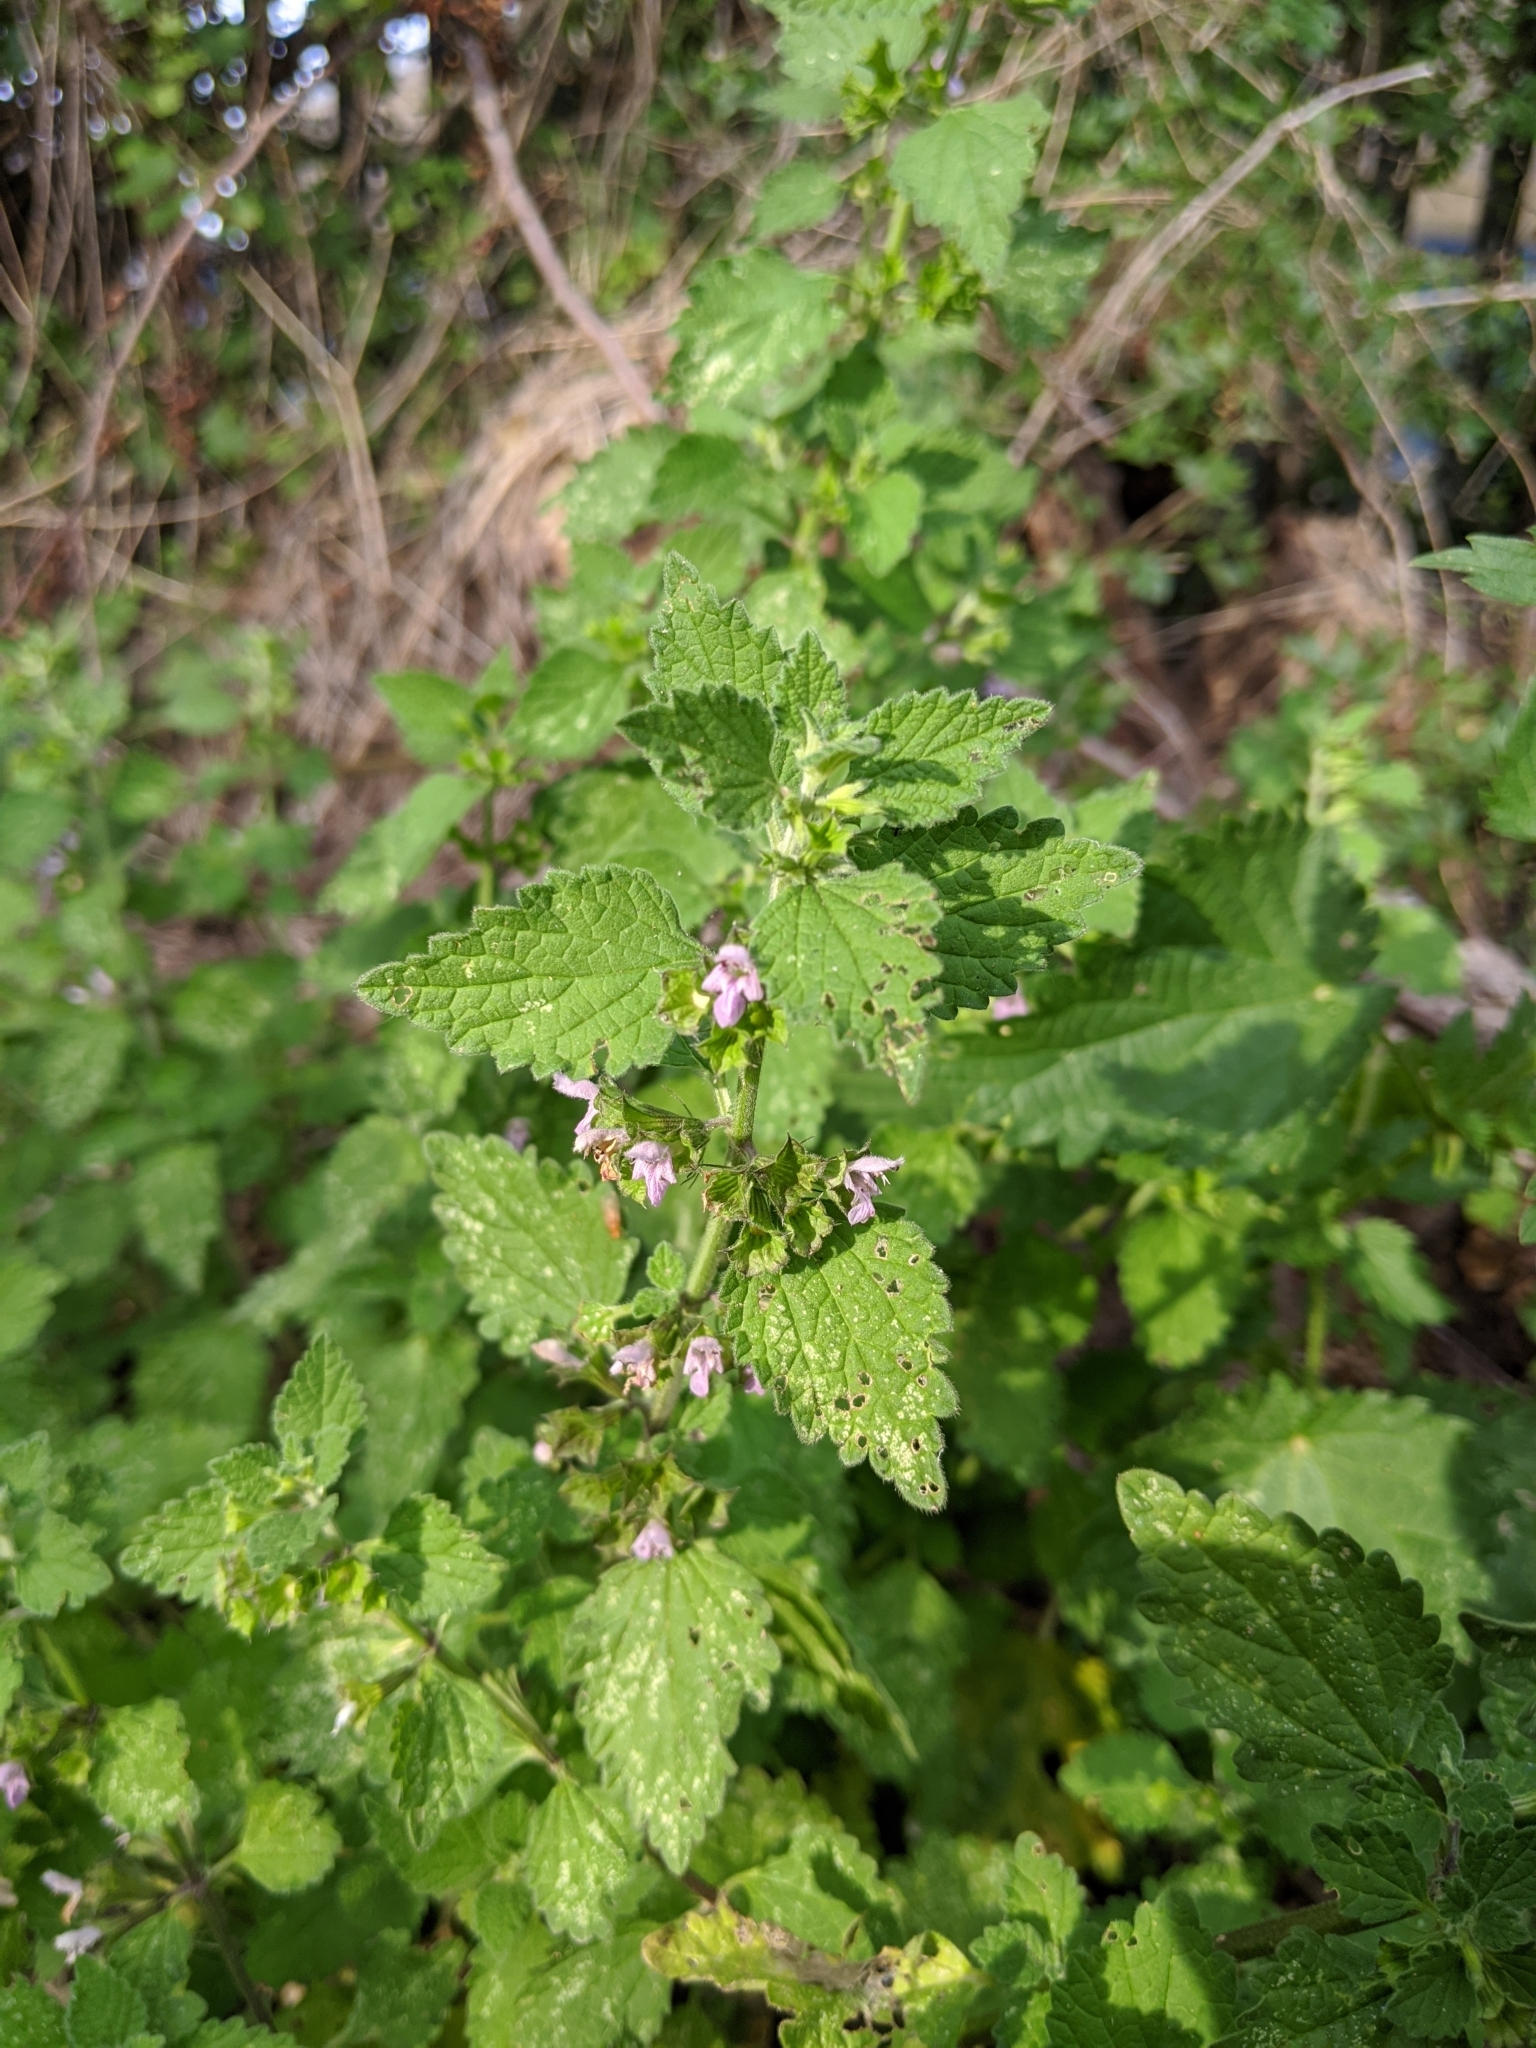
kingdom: Plantae
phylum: Tracheophyta
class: Magnoliopsida
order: Lamiales
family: Lamiaceae
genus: Ballota
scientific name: Ballota nigra
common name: Black horehound
